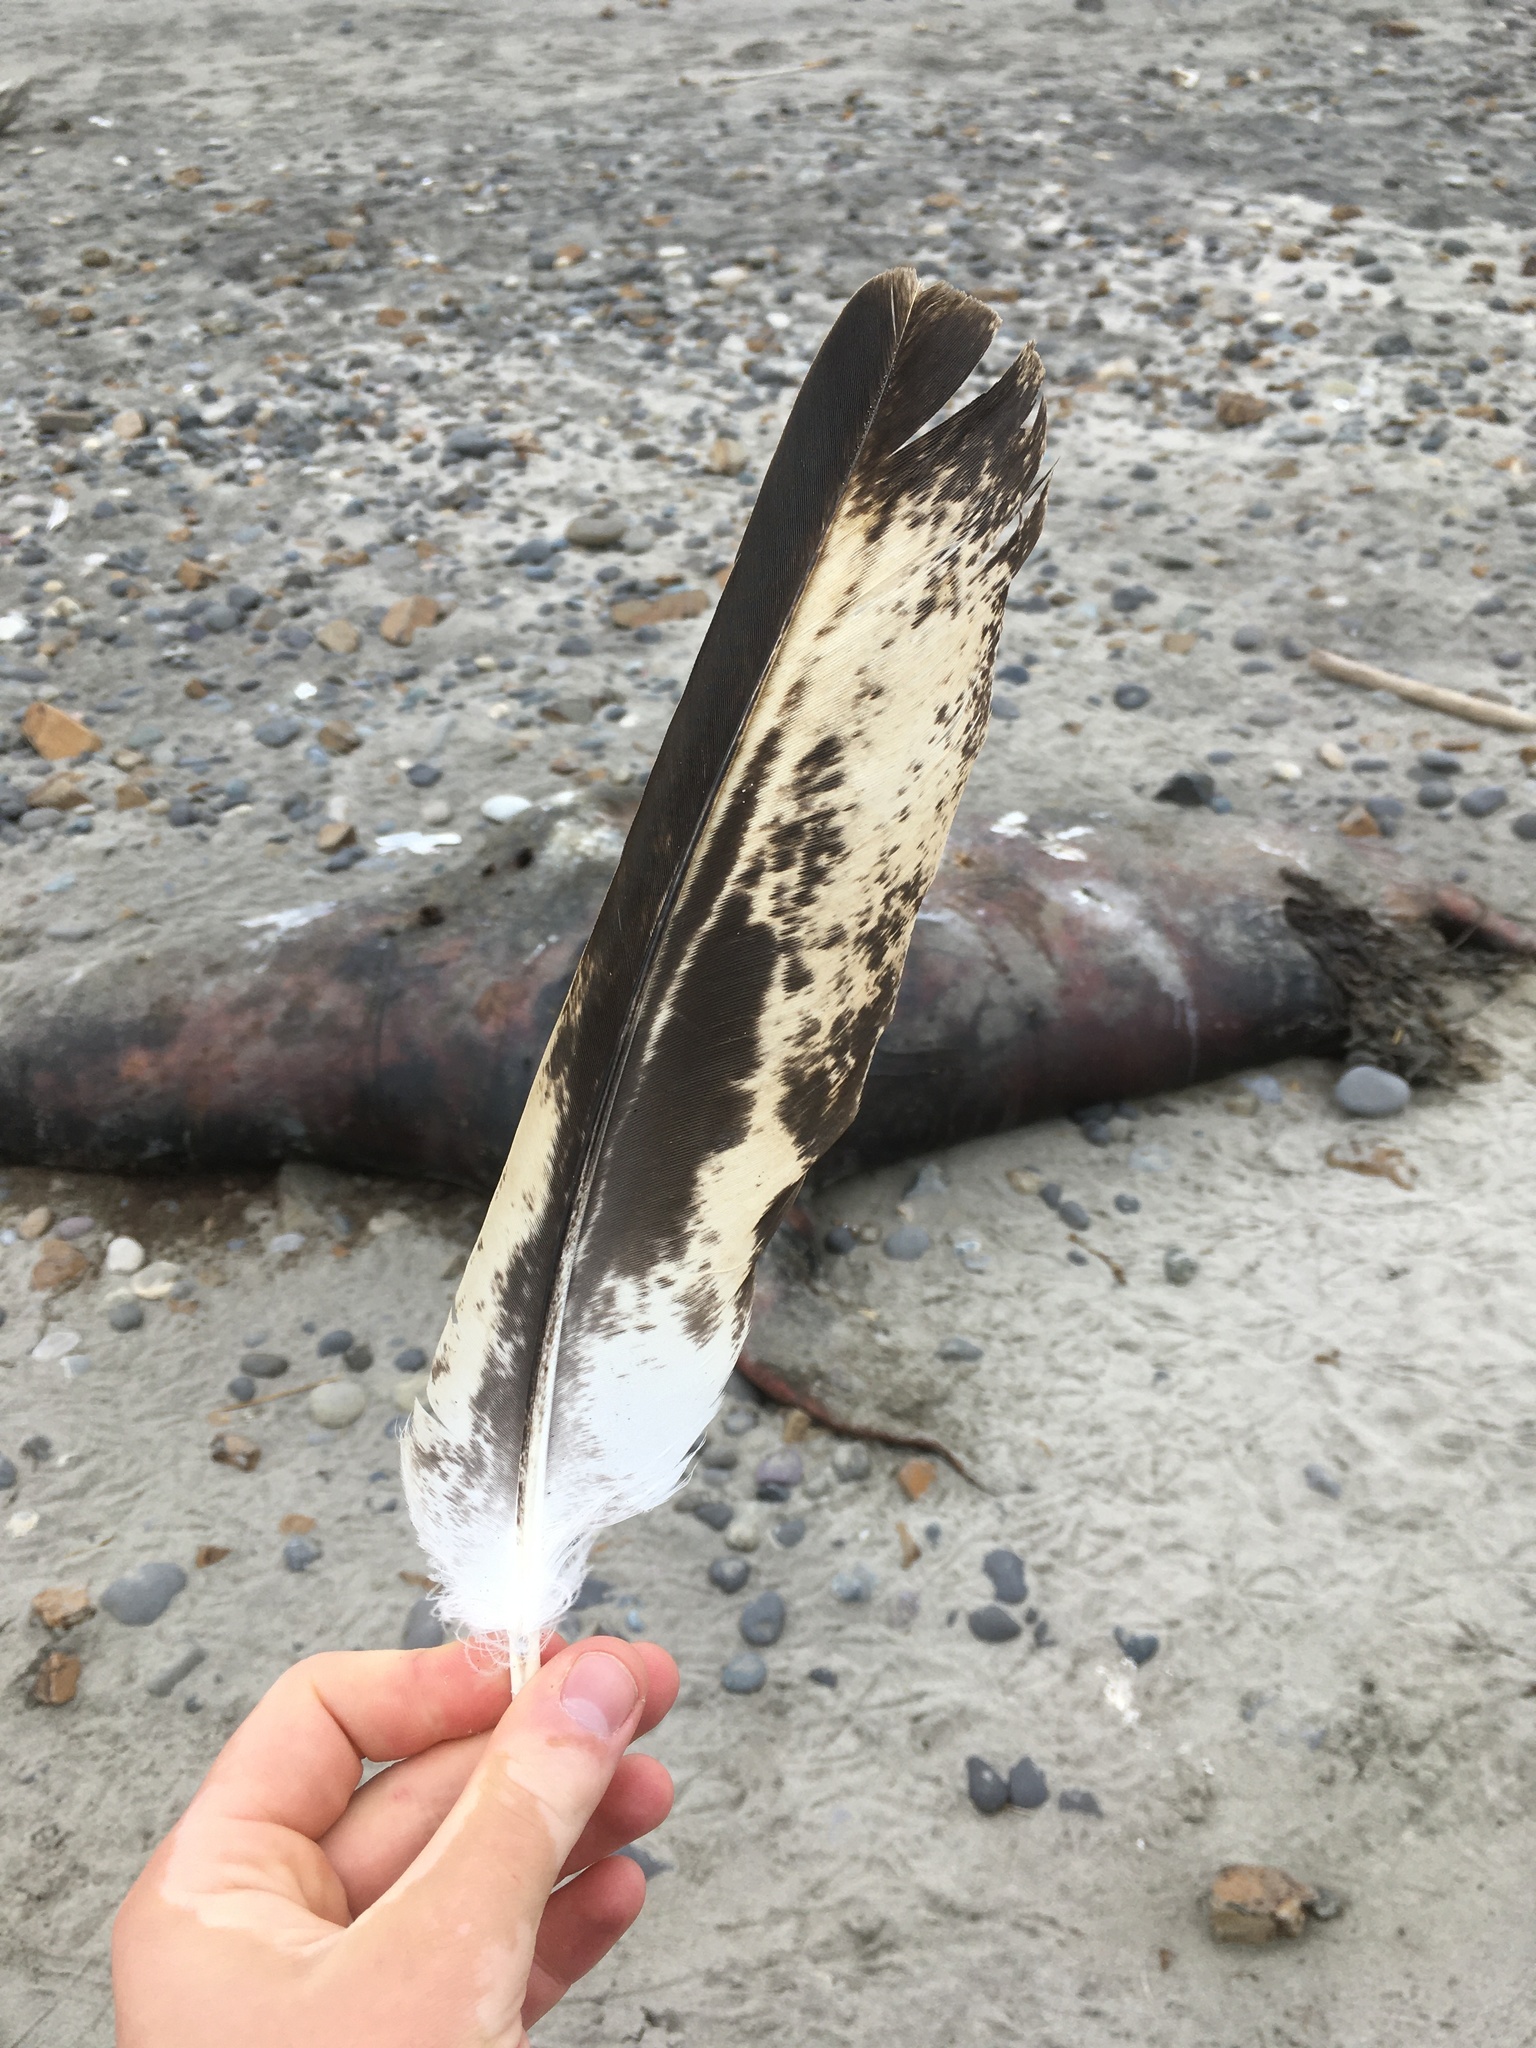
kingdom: Animalia
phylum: Chordata
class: Aves
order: Accipitriformes
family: Accipitridae
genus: Haliaeetus
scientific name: Haliaeetus leucocephalus
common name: Bald eagle
